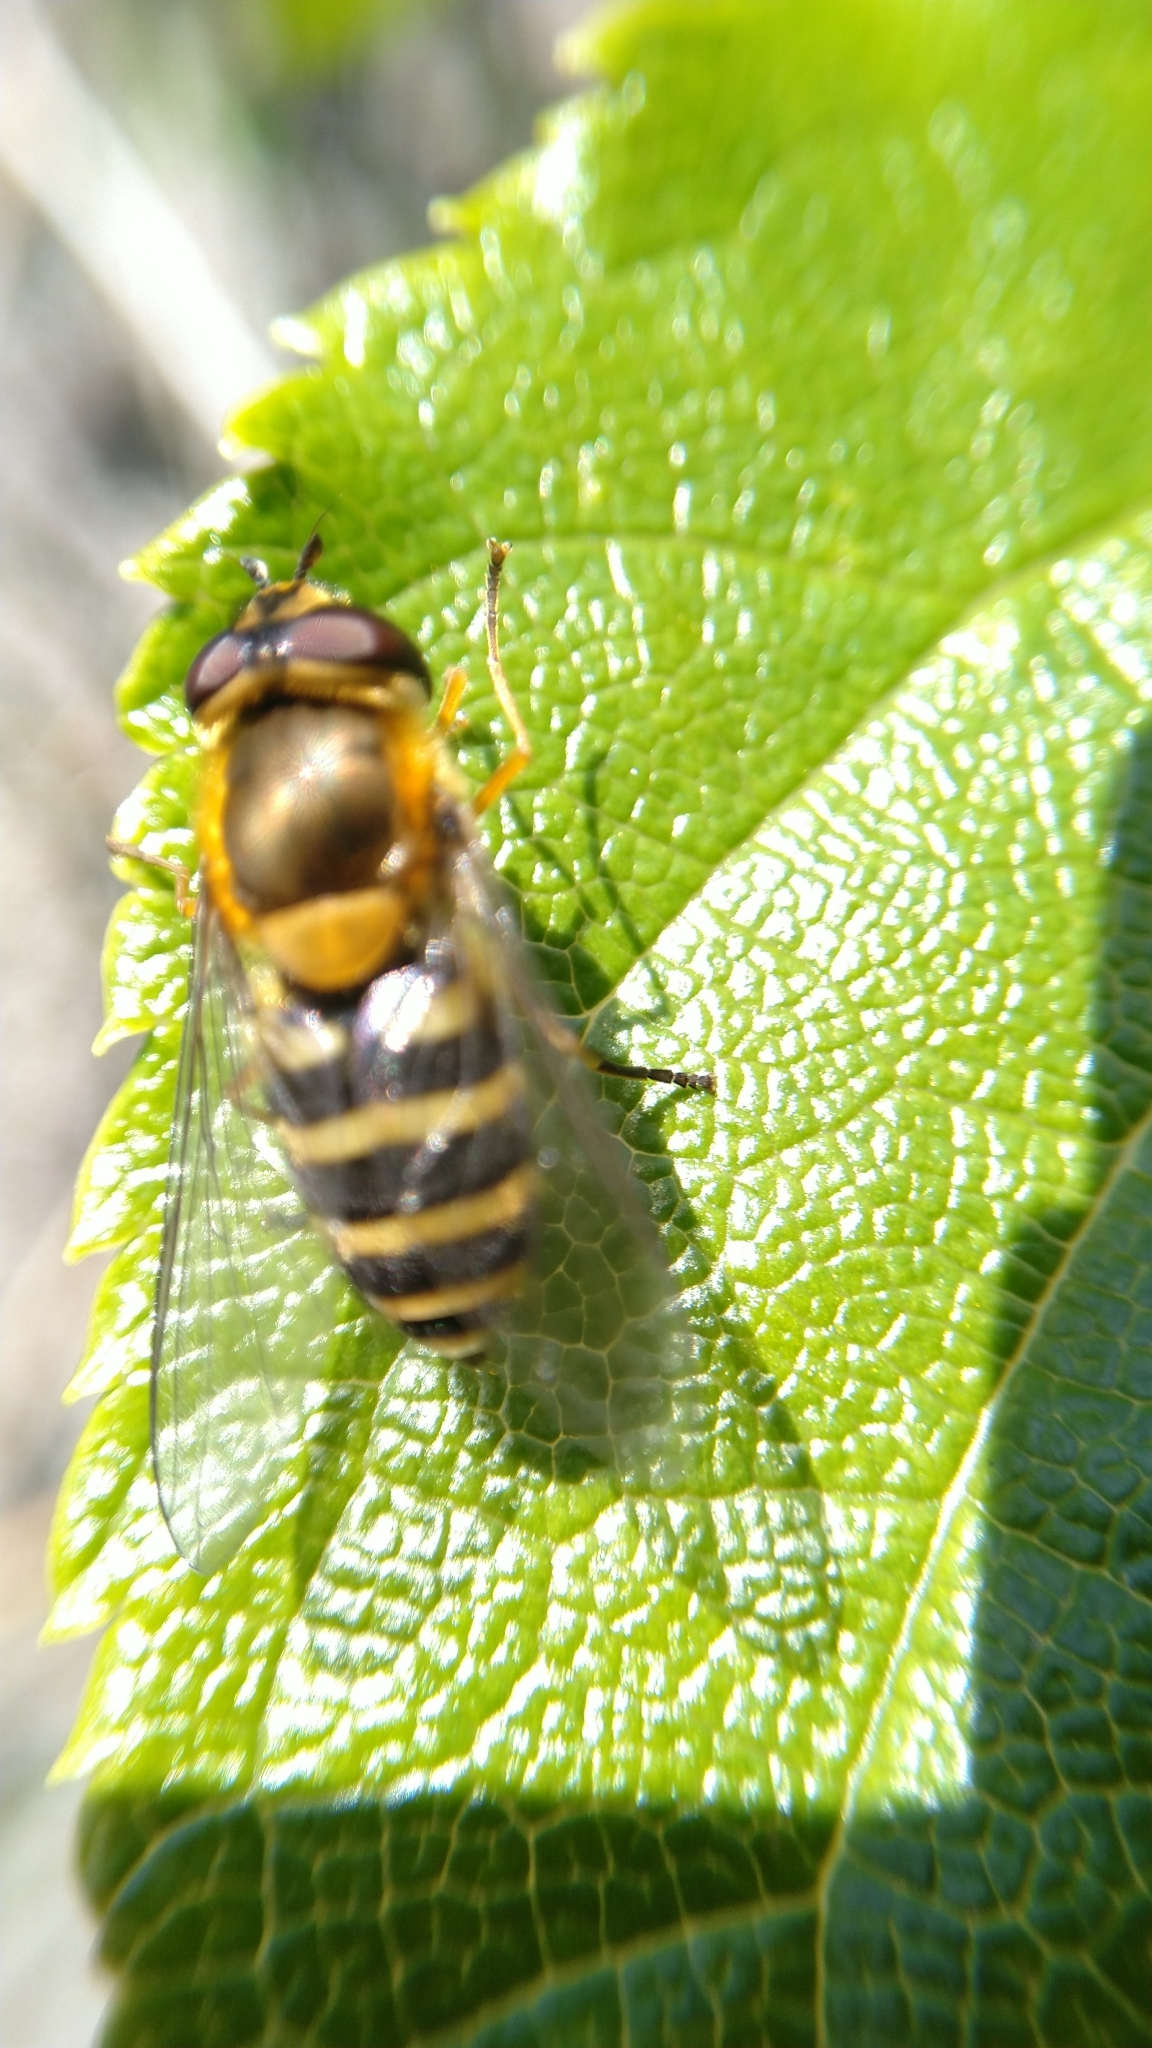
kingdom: Animalia
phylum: Arthropoda
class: Insecta
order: Diptera
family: Syrphidae
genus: Syrphus
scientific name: Syrphus
